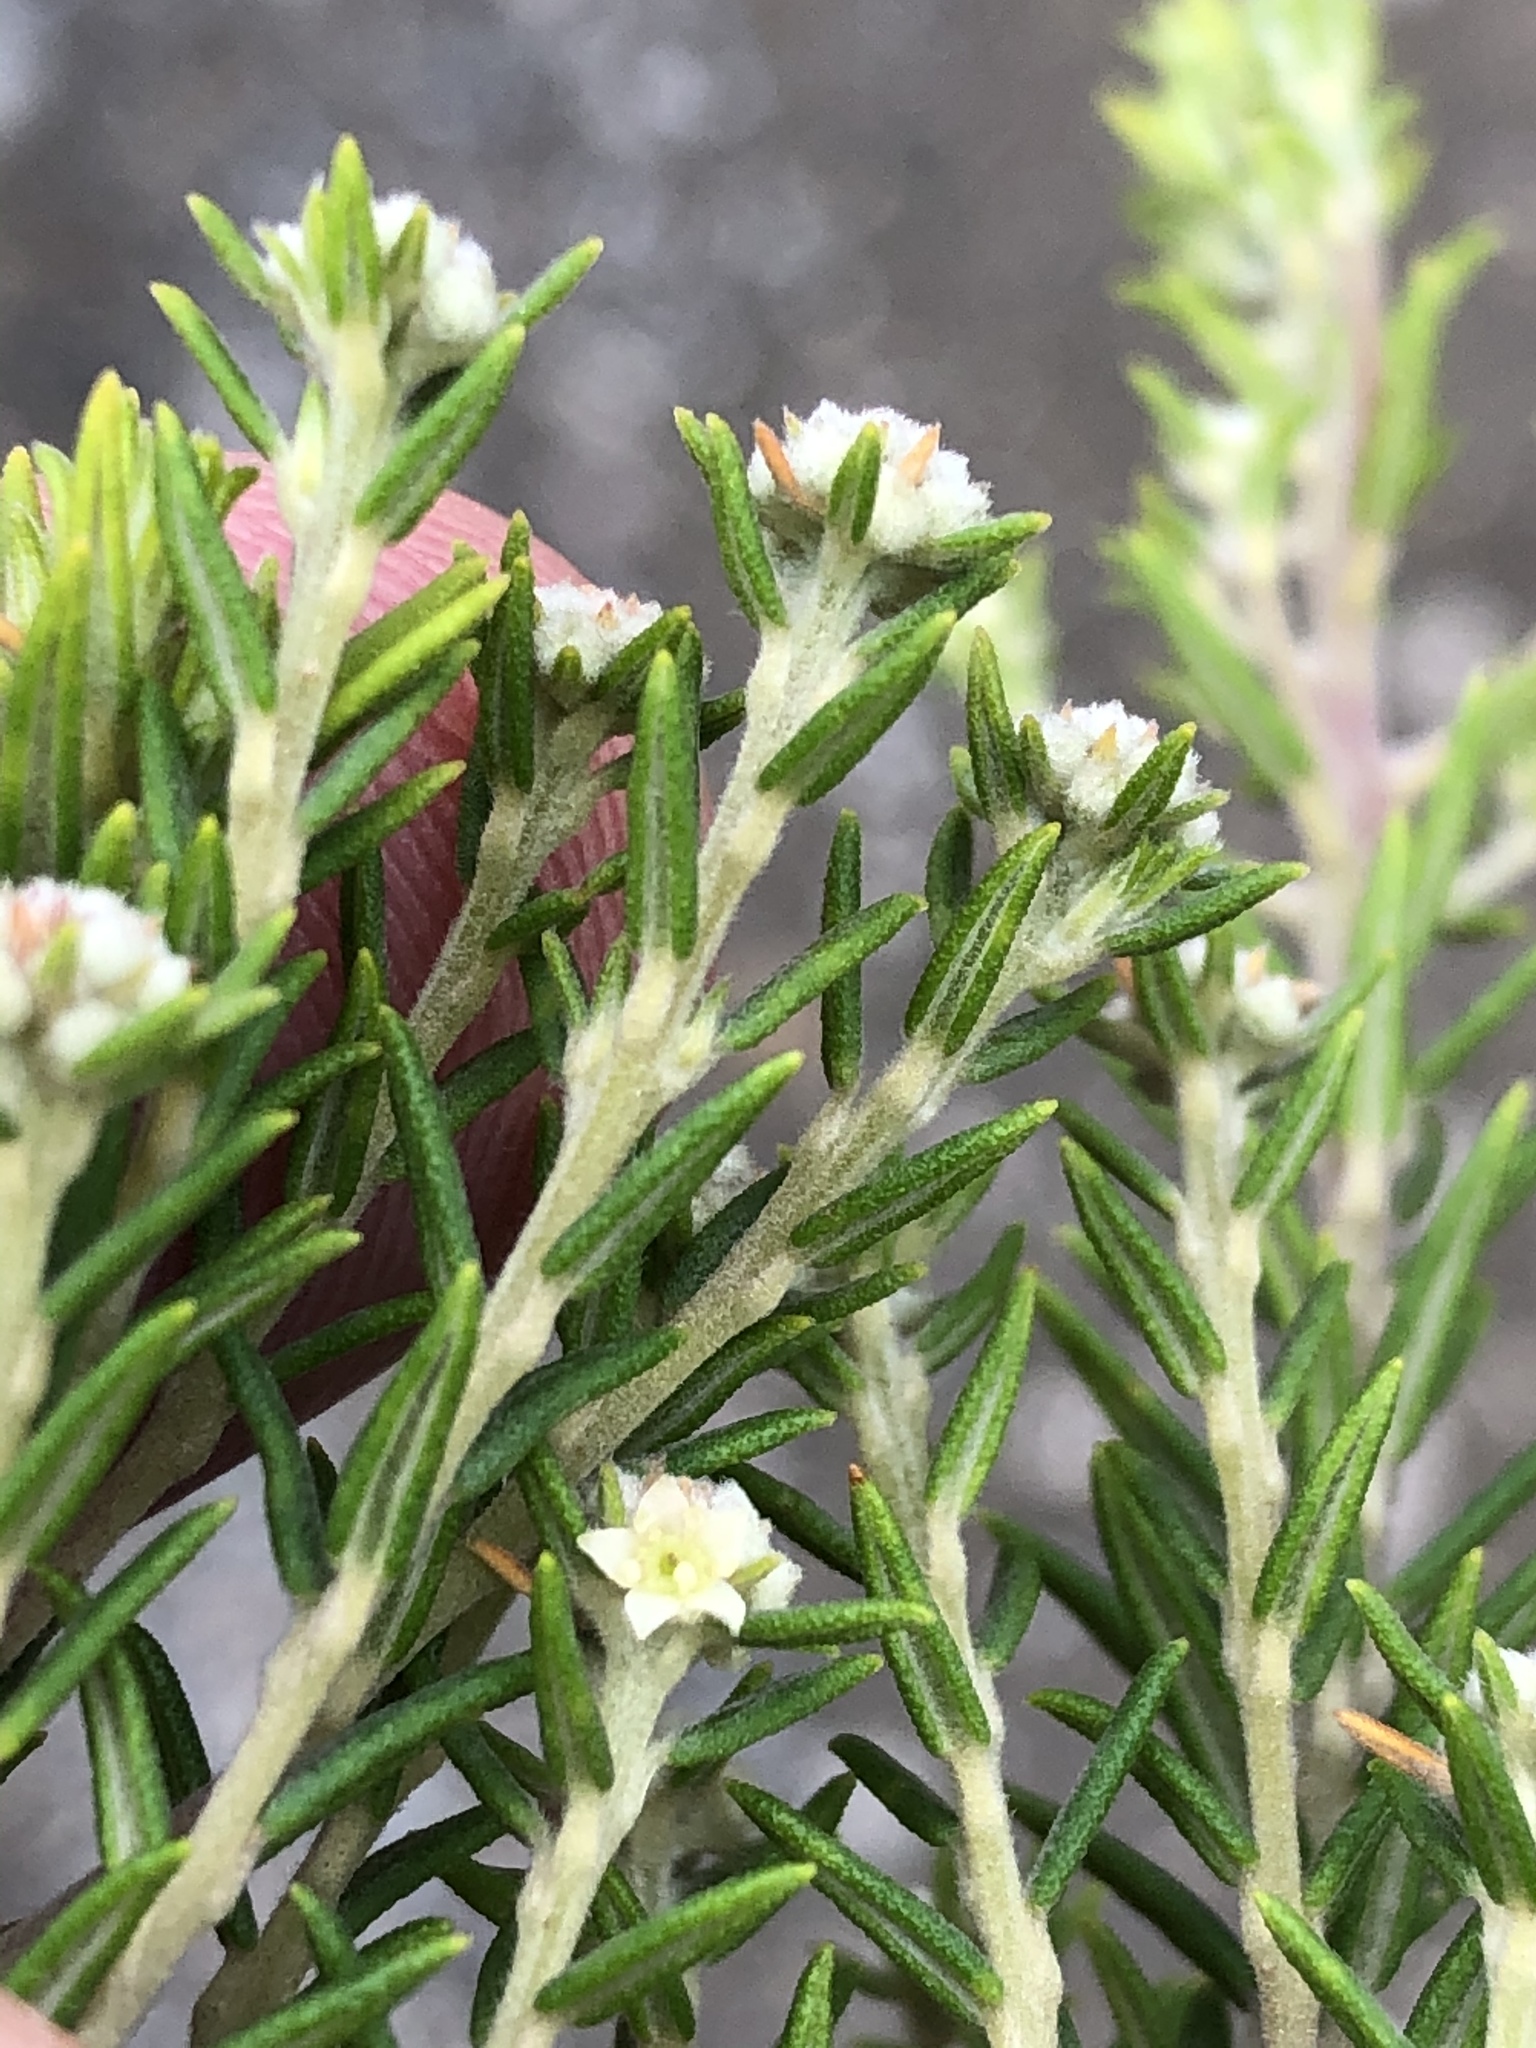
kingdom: Plantae
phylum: Tracheophyta
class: Magnoliopsida
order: Rosales
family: Rhamnaceae
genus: Phylica
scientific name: Phylica wittebergensis
